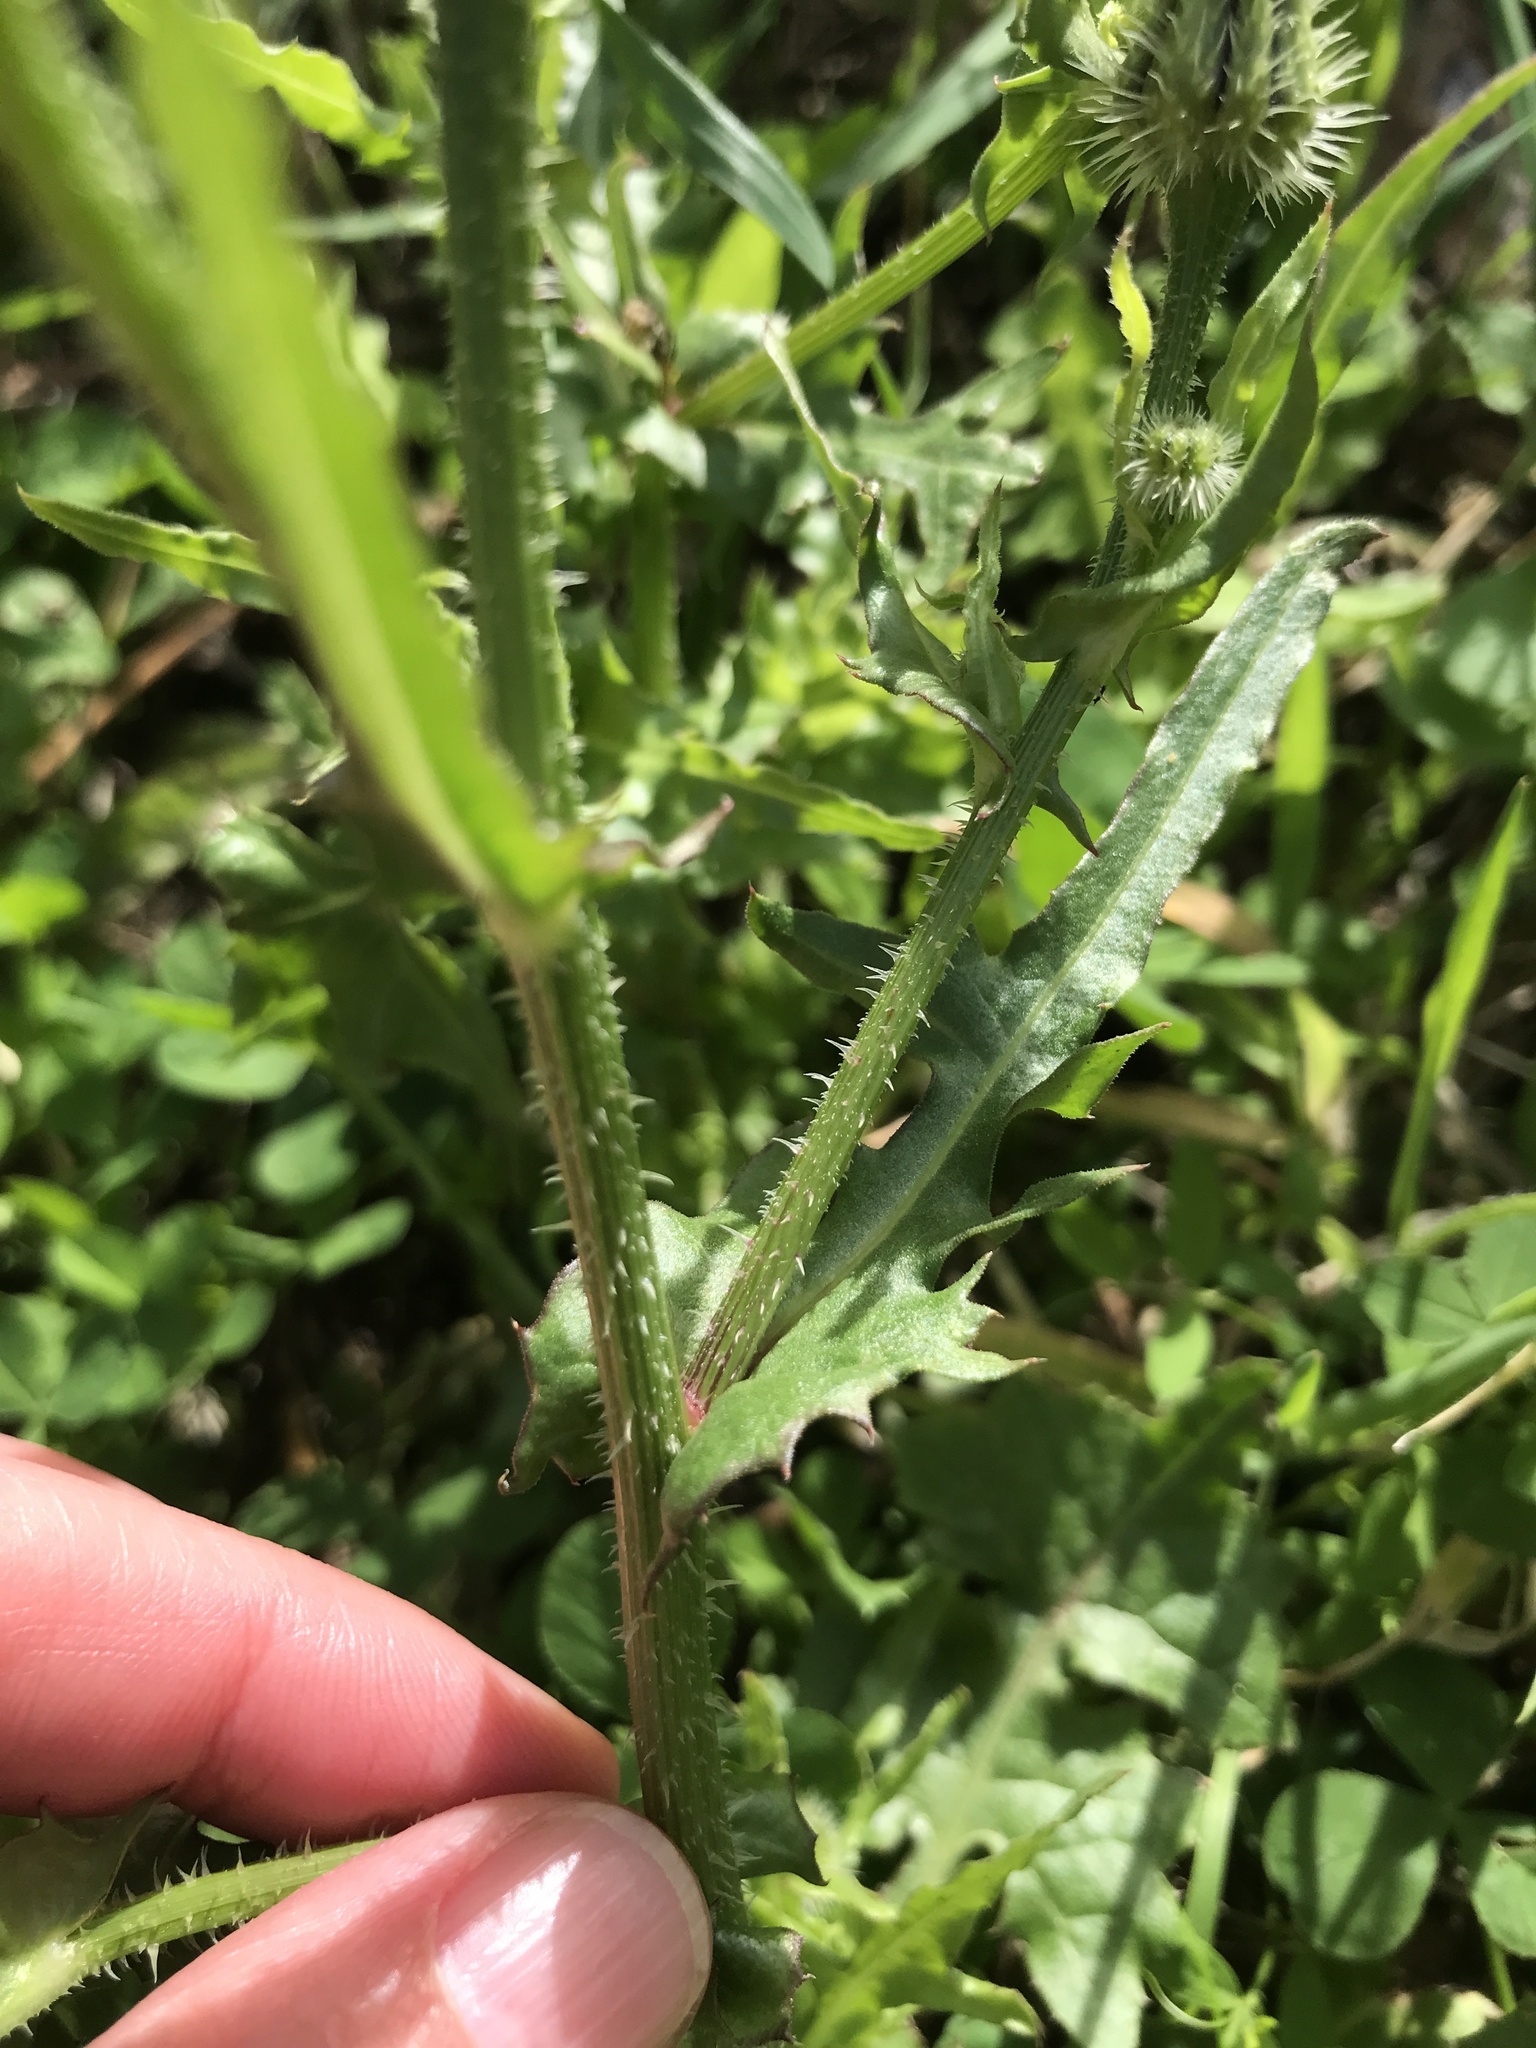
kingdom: Plantae
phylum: Tracheophyta
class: Magnoliopsida
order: Asterales
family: Asteraceae
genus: Urospermum
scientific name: Urospermum picroides
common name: False hawkbit
